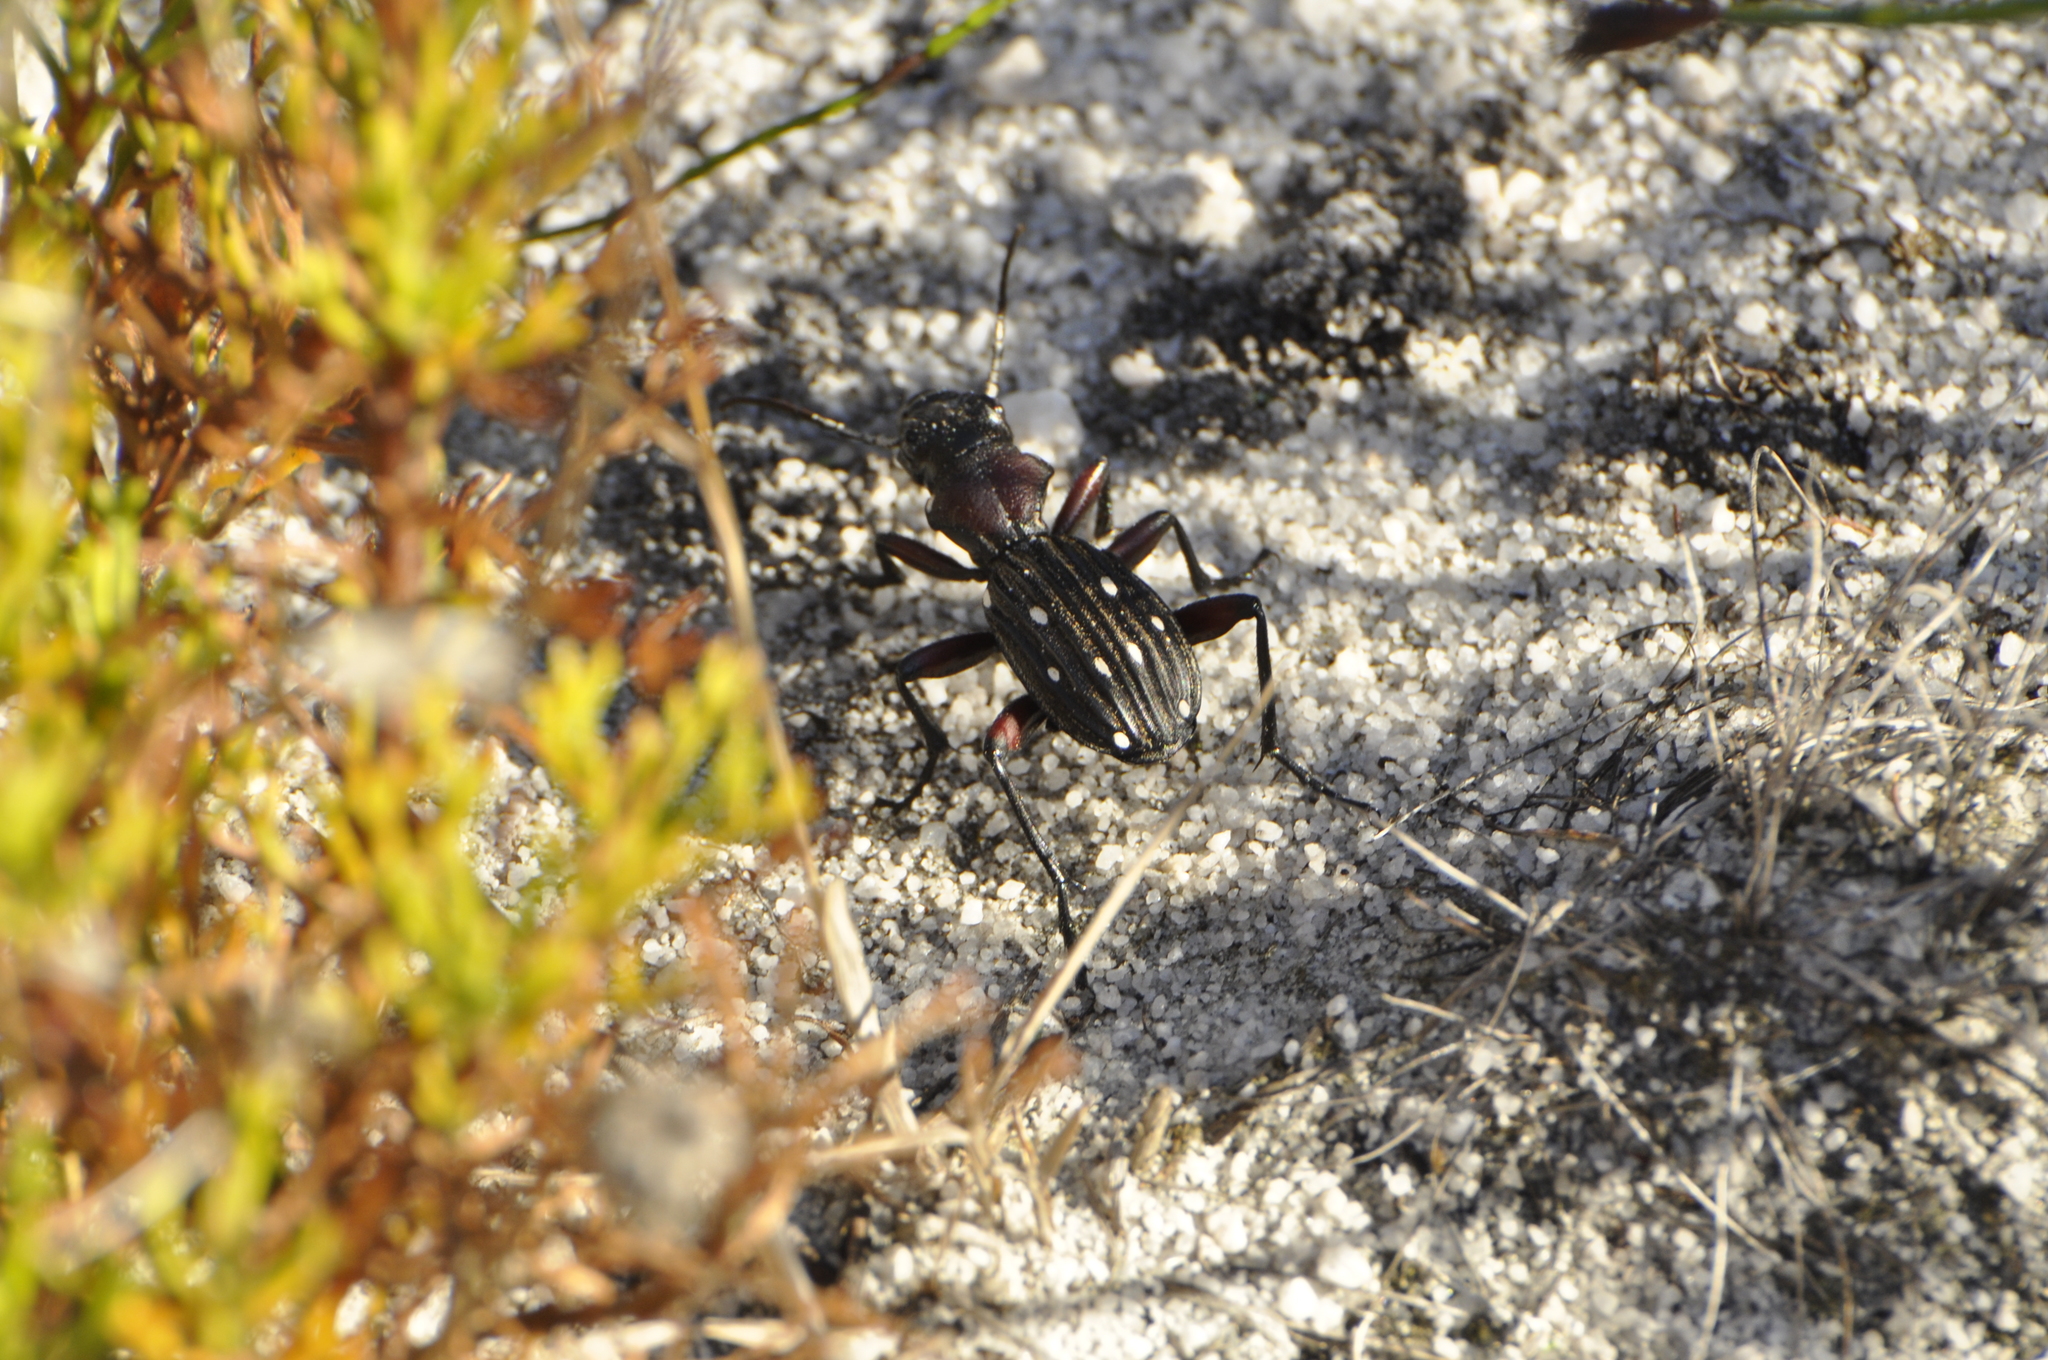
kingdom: Animalia
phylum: Arthropoda
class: Insecta
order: Coleoptera
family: Carabidae
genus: Anthia
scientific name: Anthia decemguttata
